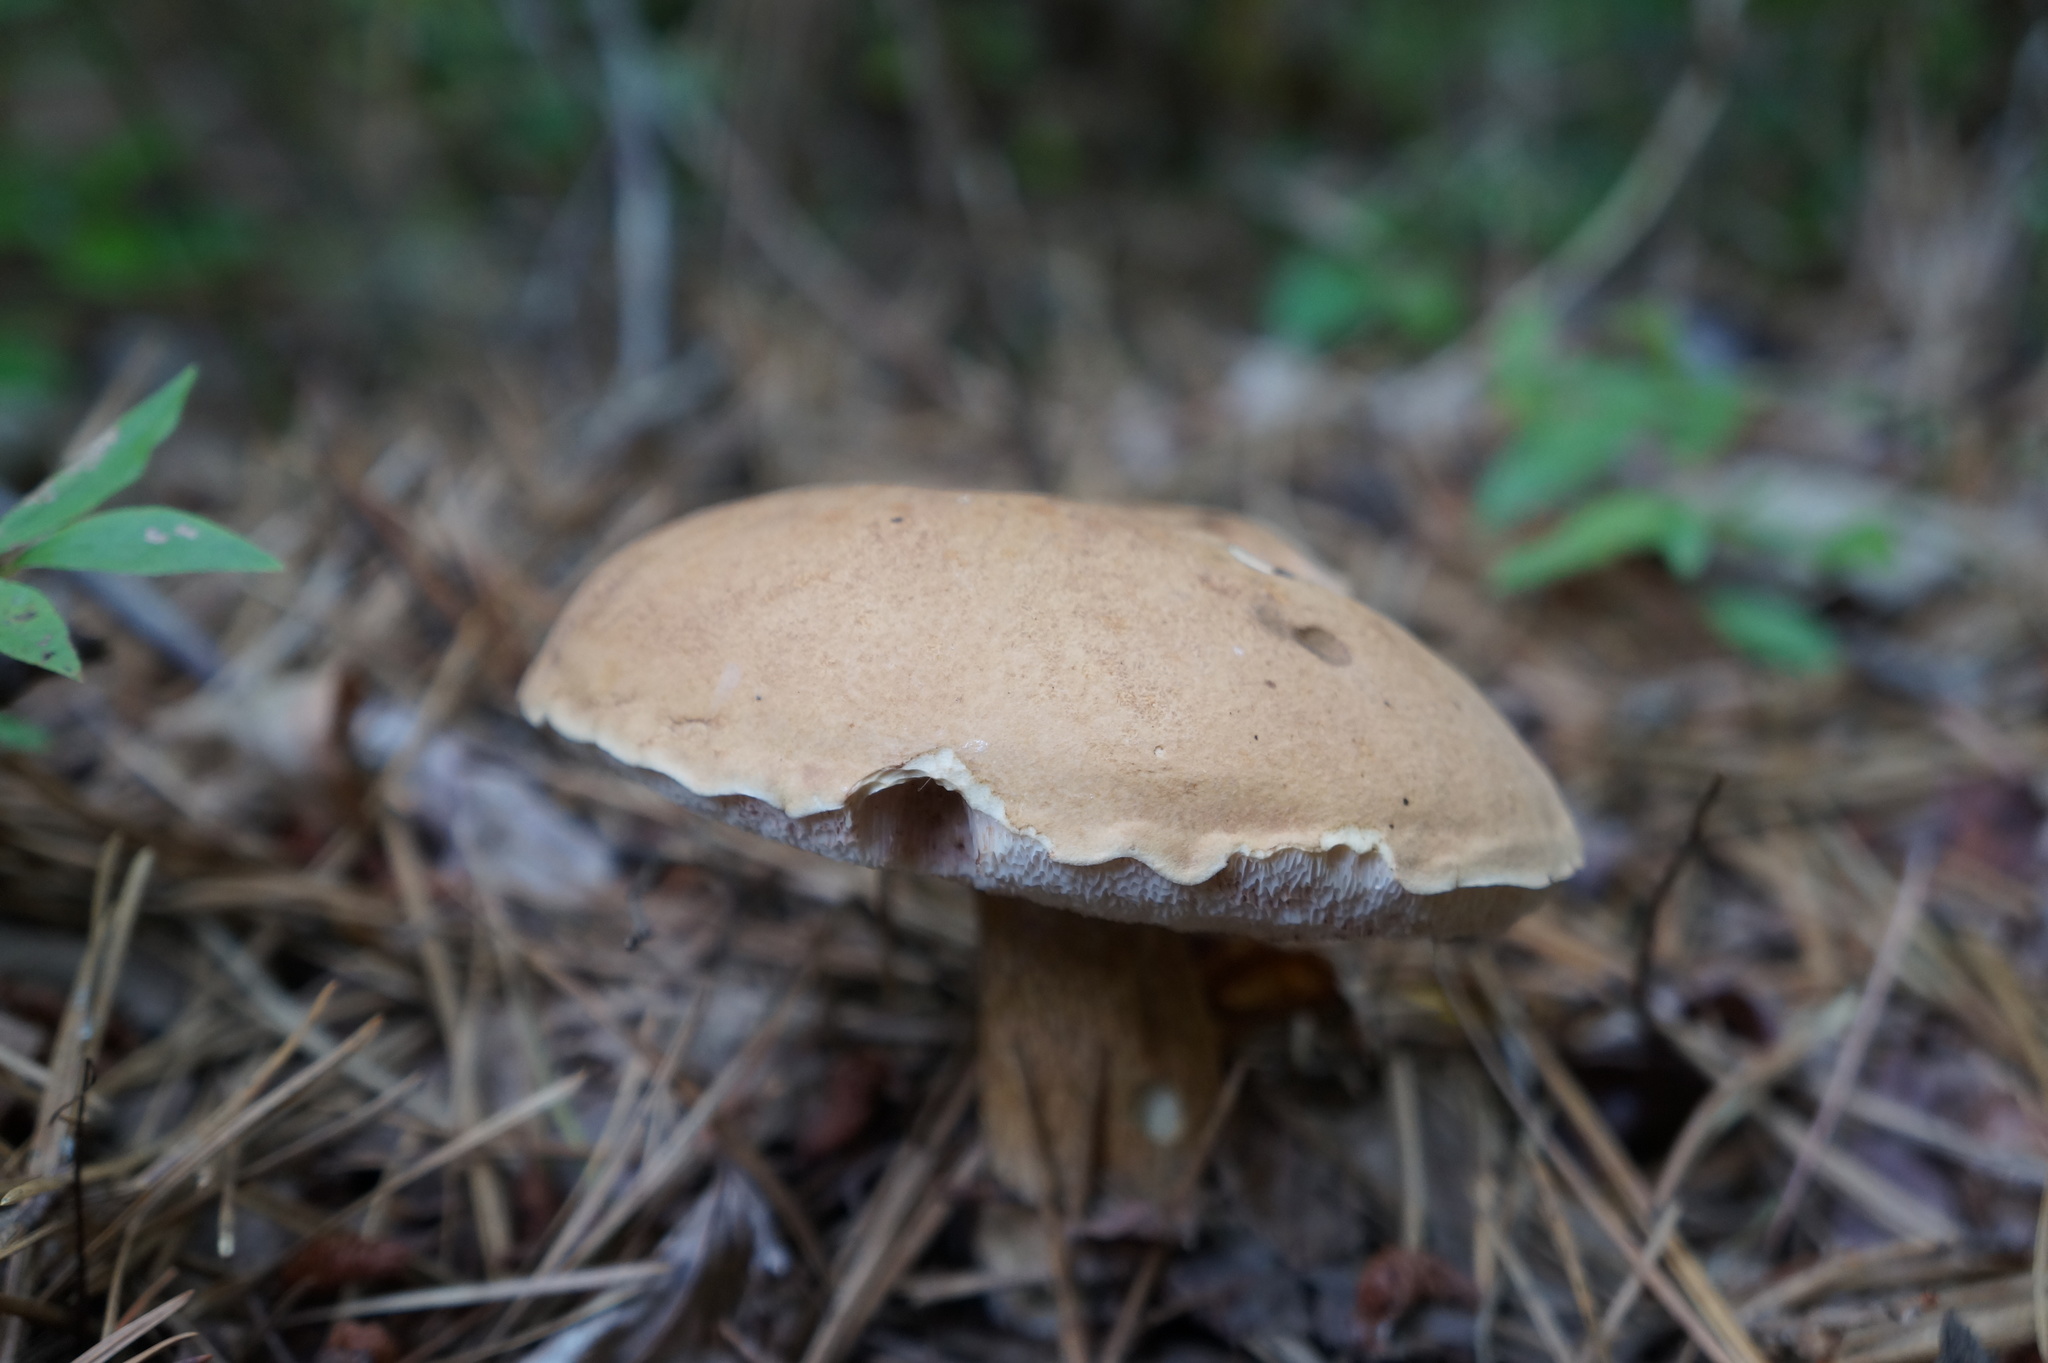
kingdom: Fungi
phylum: Basidiomycota
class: Agaricomycetes
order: Boletales
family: Boletaceae
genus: Tylopilus
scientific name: Tylopilus felleus
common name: Bitter bolete
